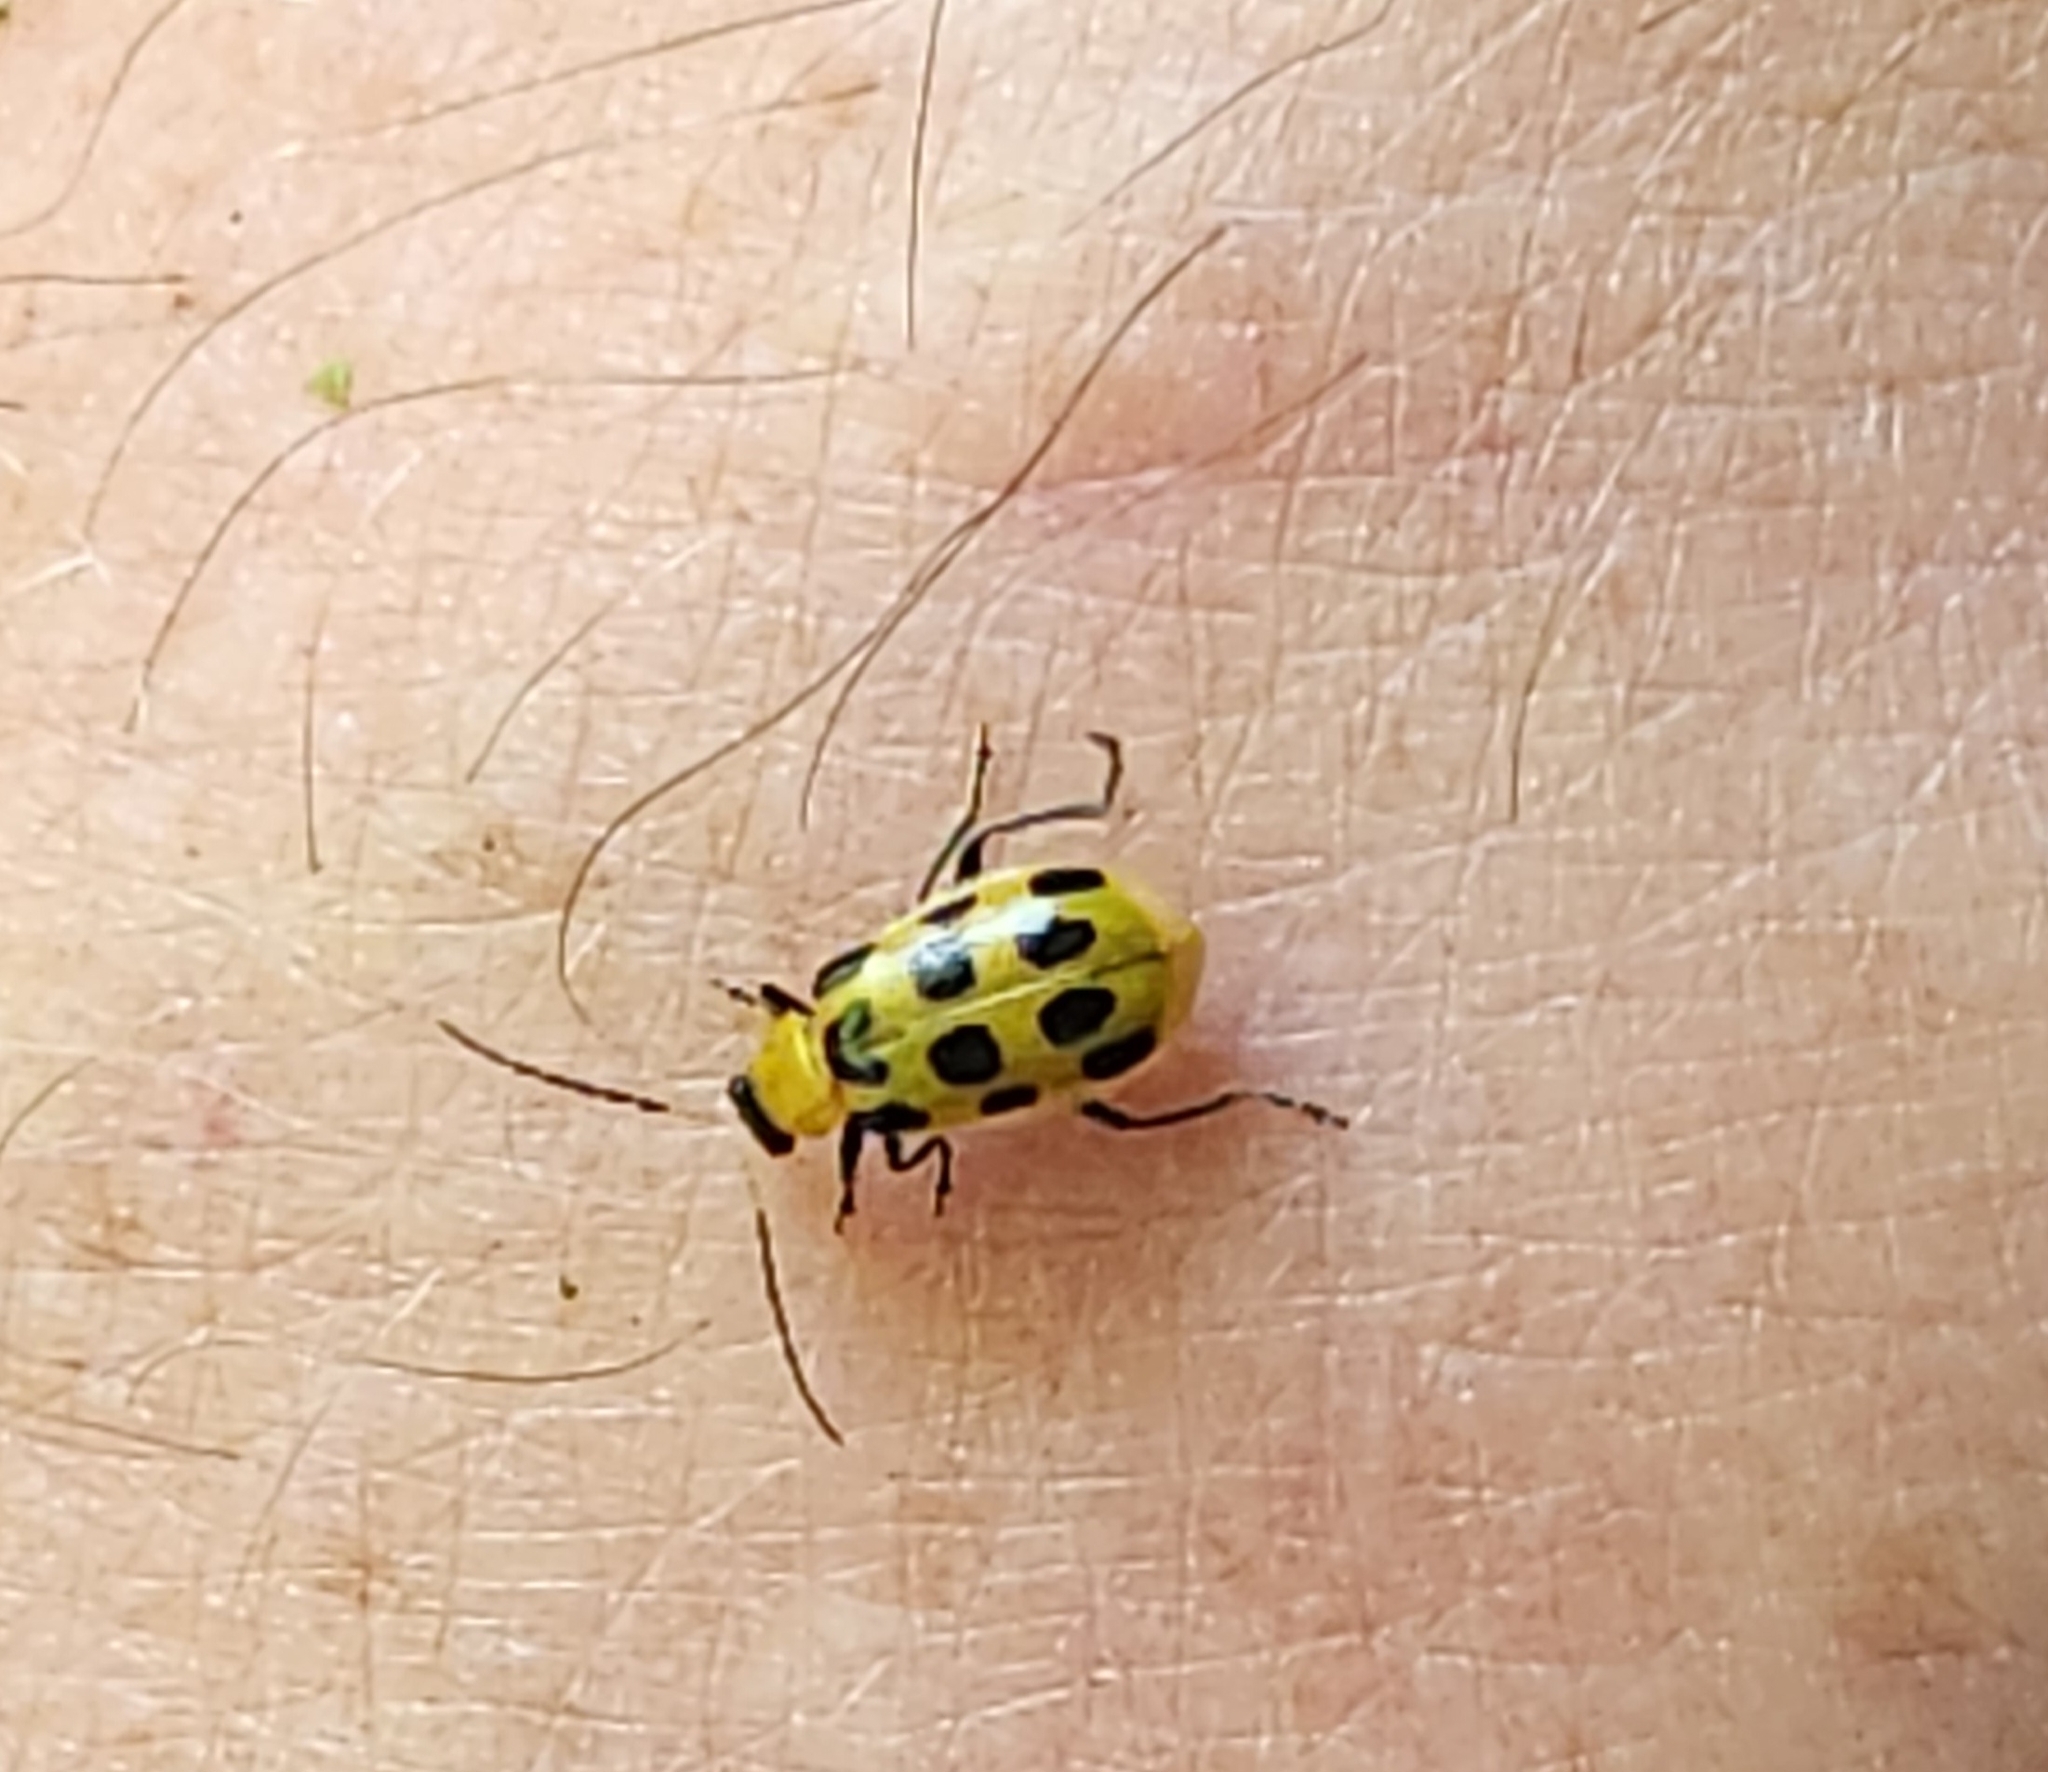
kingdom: Animalia
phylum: Arthropoda
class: Insecta
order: Coleoptera
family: Chrysomelidae
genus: Diabrotica
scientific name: Diabrotica undecimpunctata
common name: Spotted cucumber beetle
